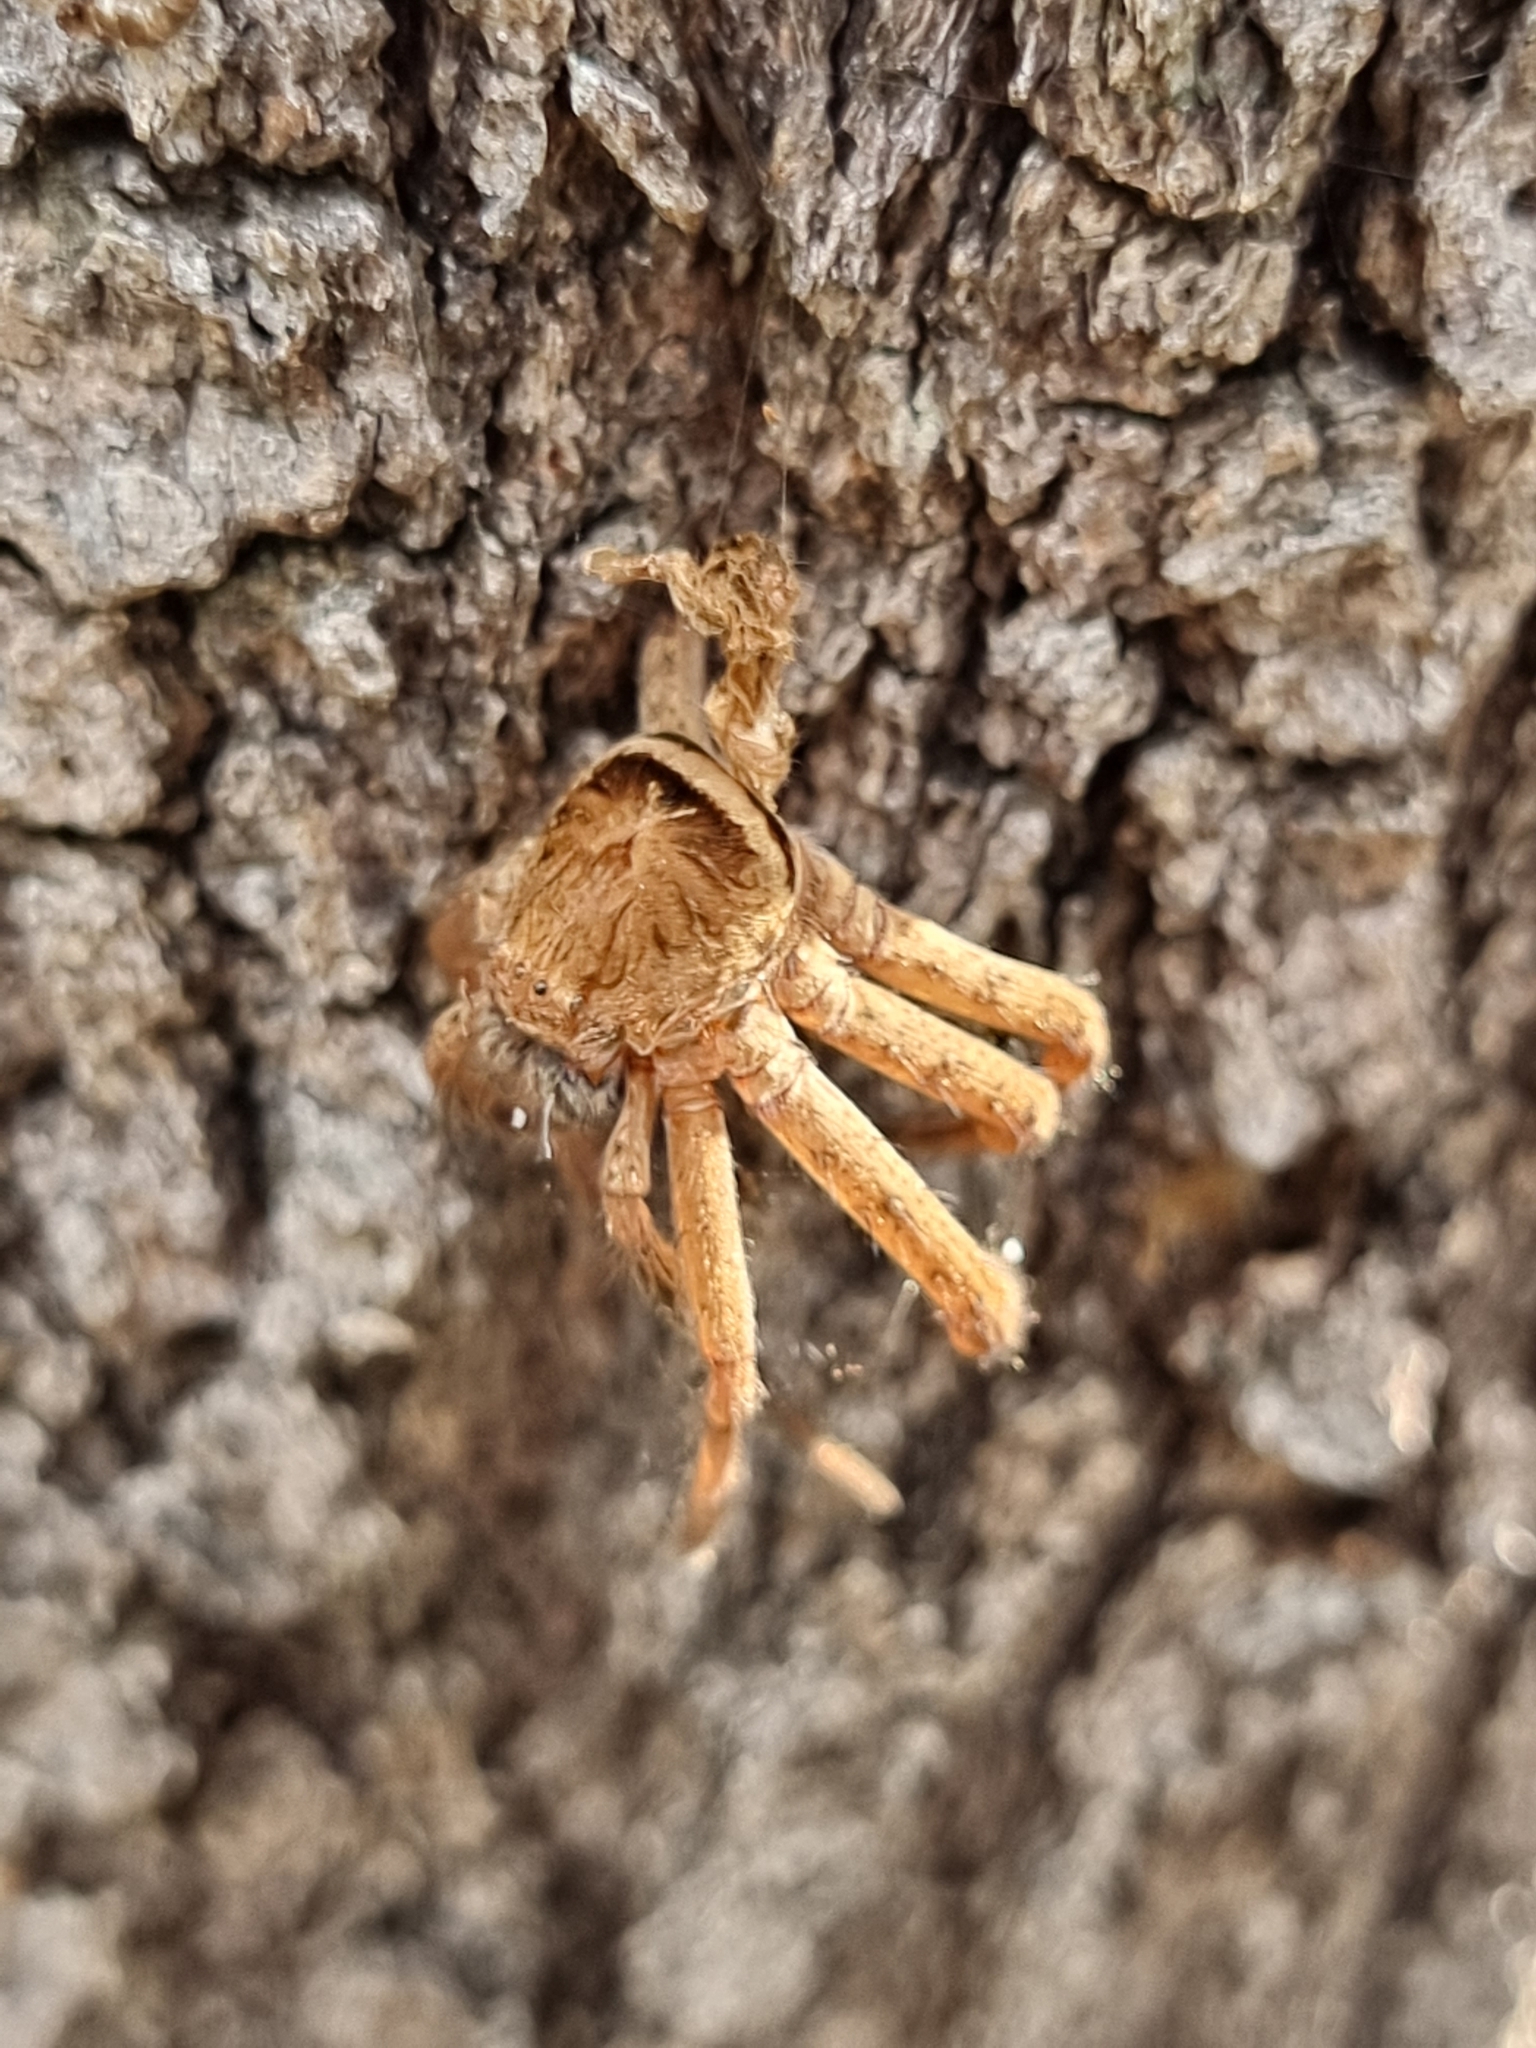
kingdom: Animalia
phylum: Arthropoda
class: Arachnida
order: Araneae
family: Sparassidae
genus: Heteropoda
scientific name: Heteropoda jugulans
